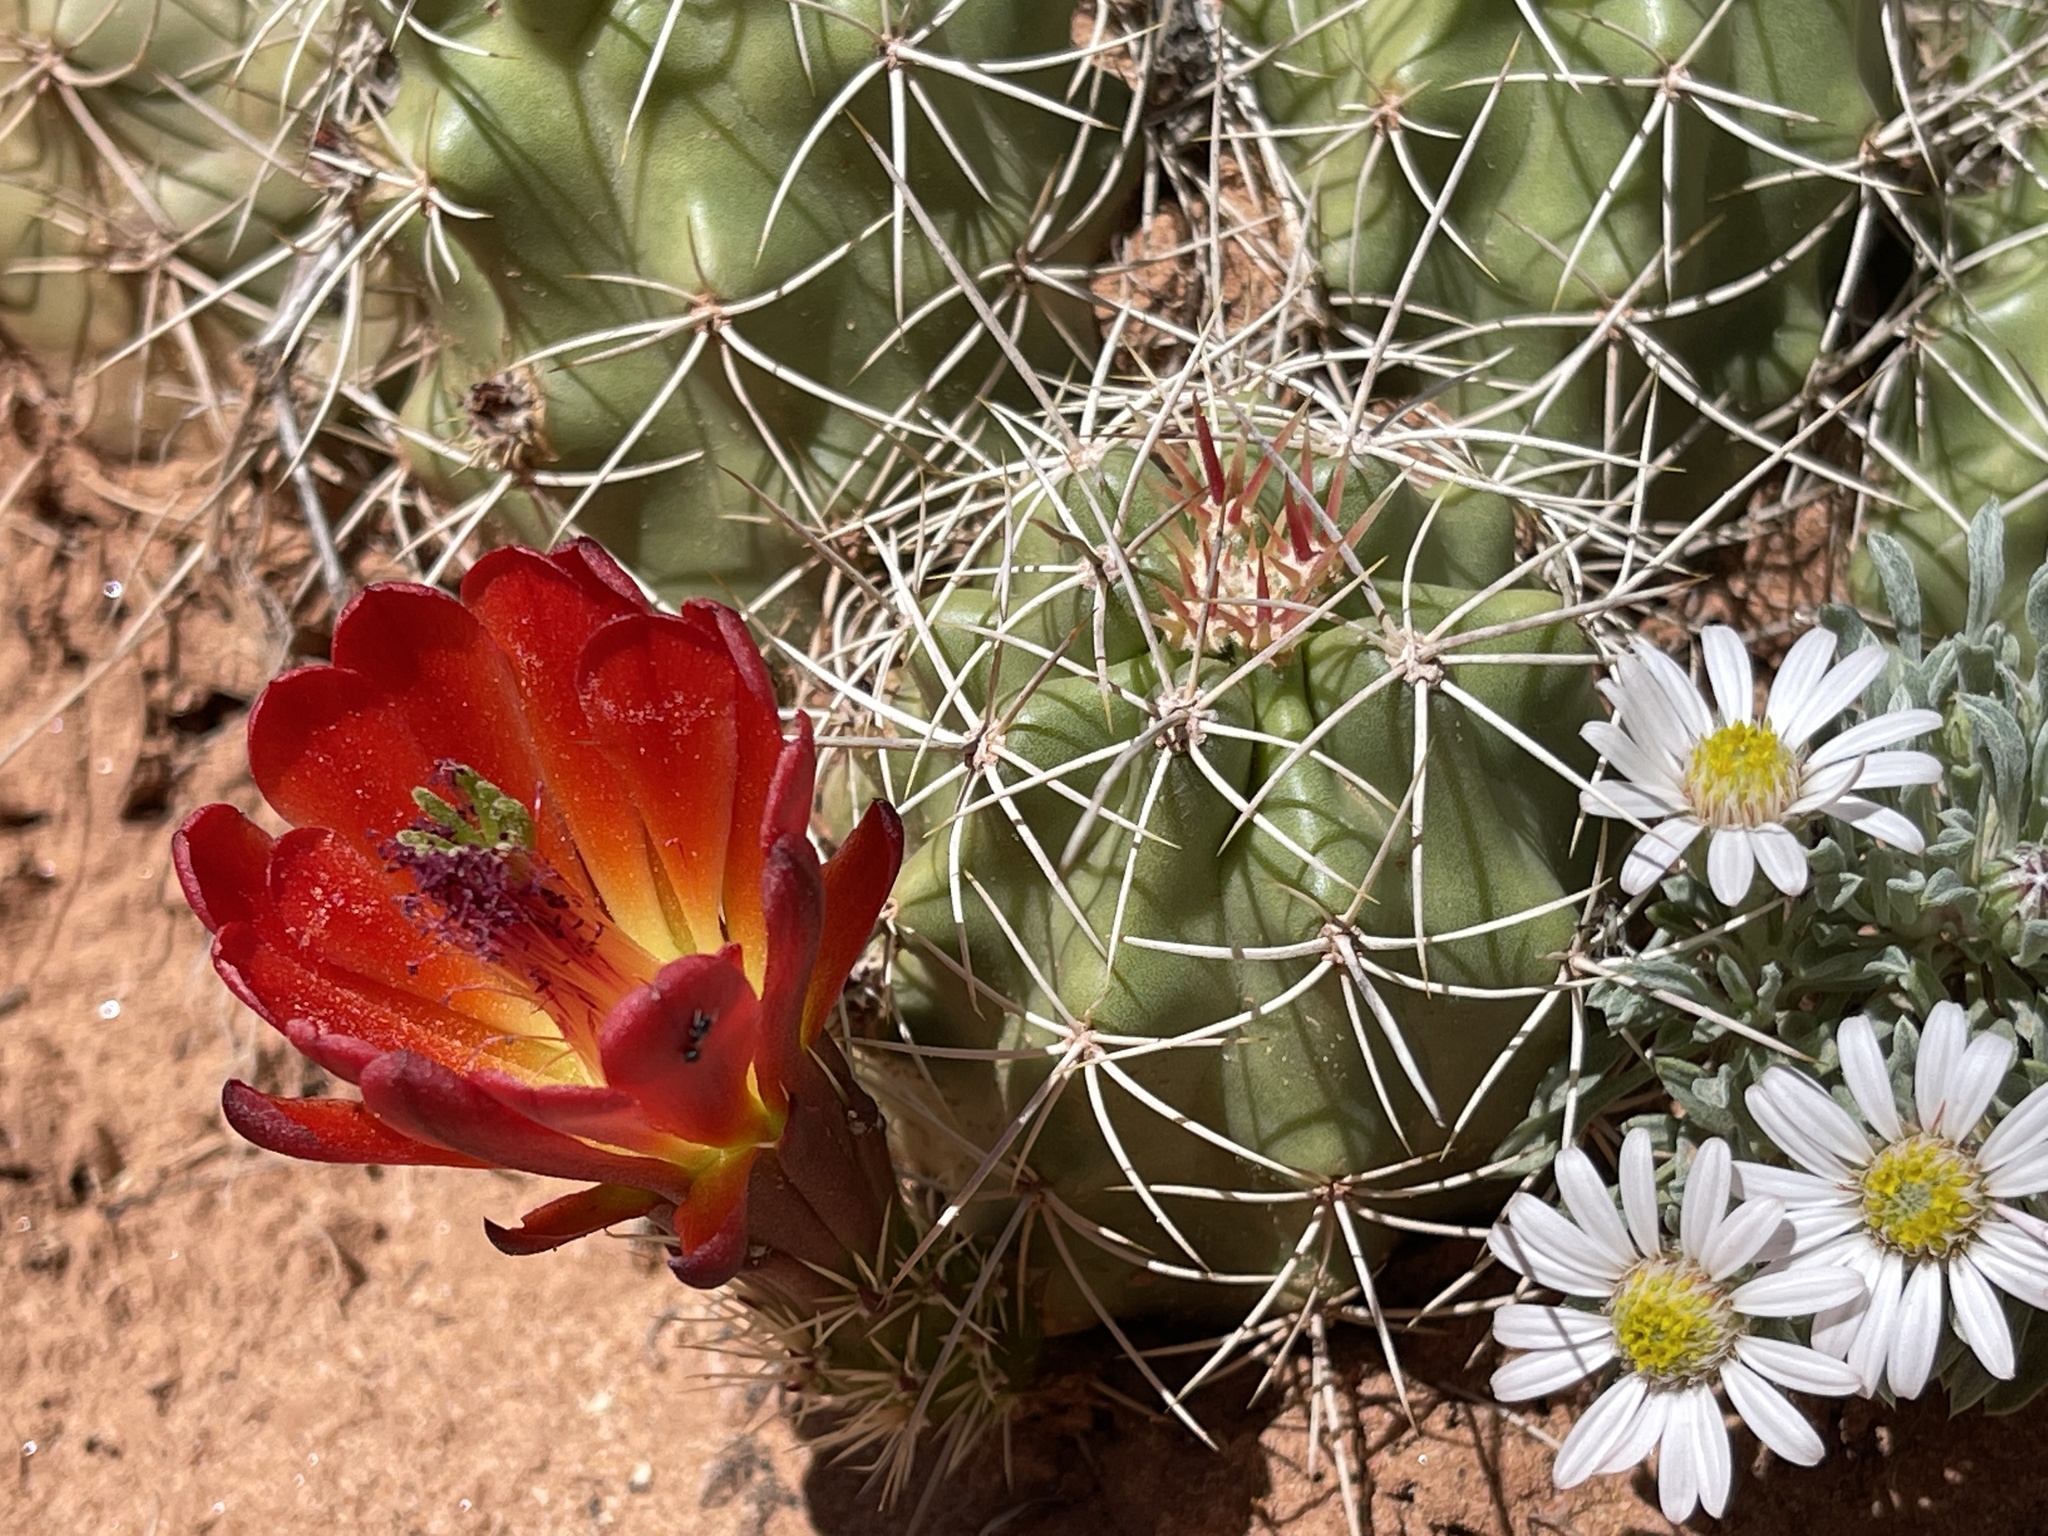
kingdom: Plantae
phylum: Tracheophyta
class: Magnoliopsida
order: Caryophyllales
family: Cactaceae
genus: Echinocereus
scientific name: Echinocereus triglochidiatus
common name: Claretcup hedgehog
